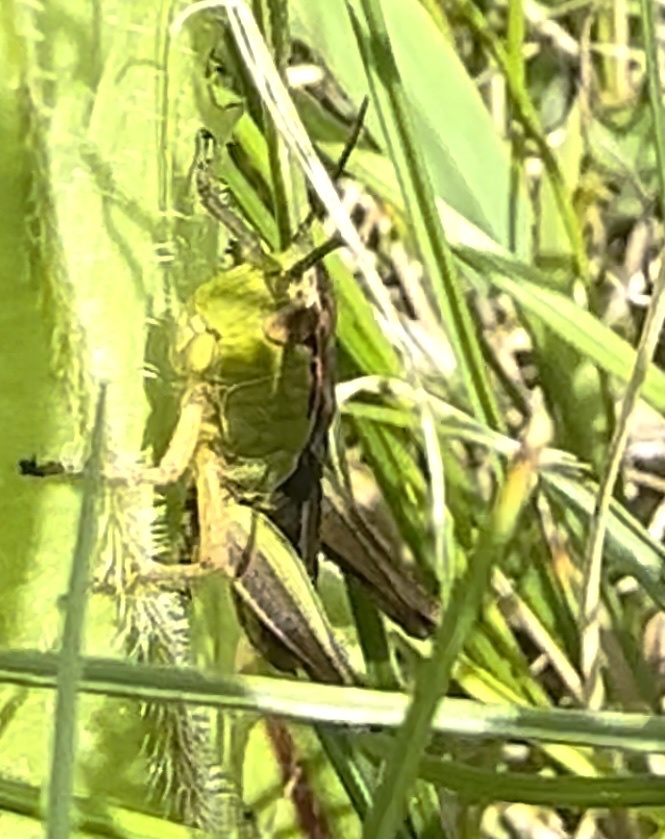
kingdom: Animalia
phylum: Arthropoda
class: Insecta
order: Orthoptera
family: Acrididae
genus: Pseudochorthippus
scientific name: Pseudochorthippus parallelus
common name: Meadow grasshopper
